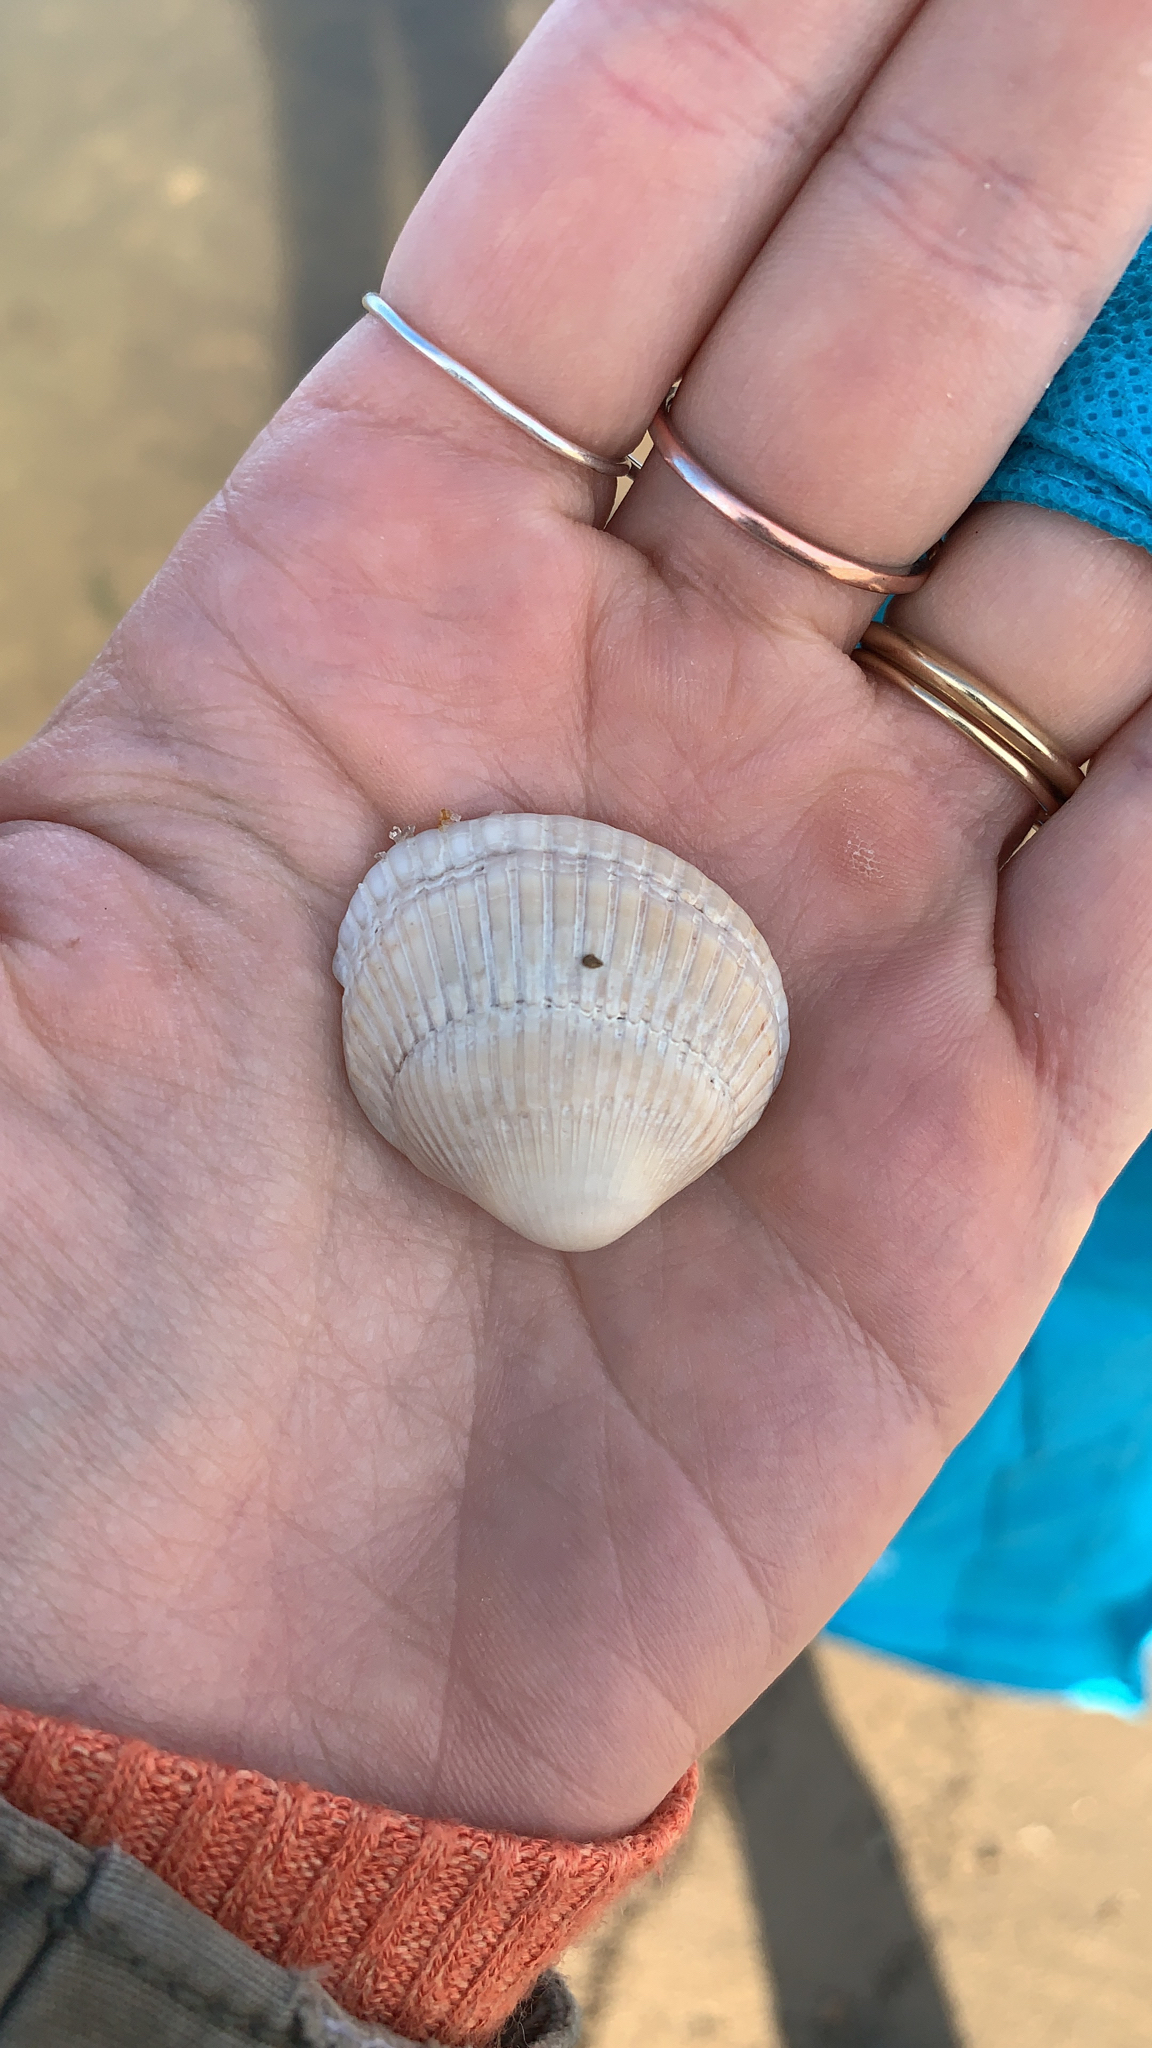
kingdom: Animalia
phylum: Mollusca
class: Bivalvia
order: Arcida
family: Arcidae
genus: Lunarca
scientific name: Lunarca ovalis
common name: Blood ark
